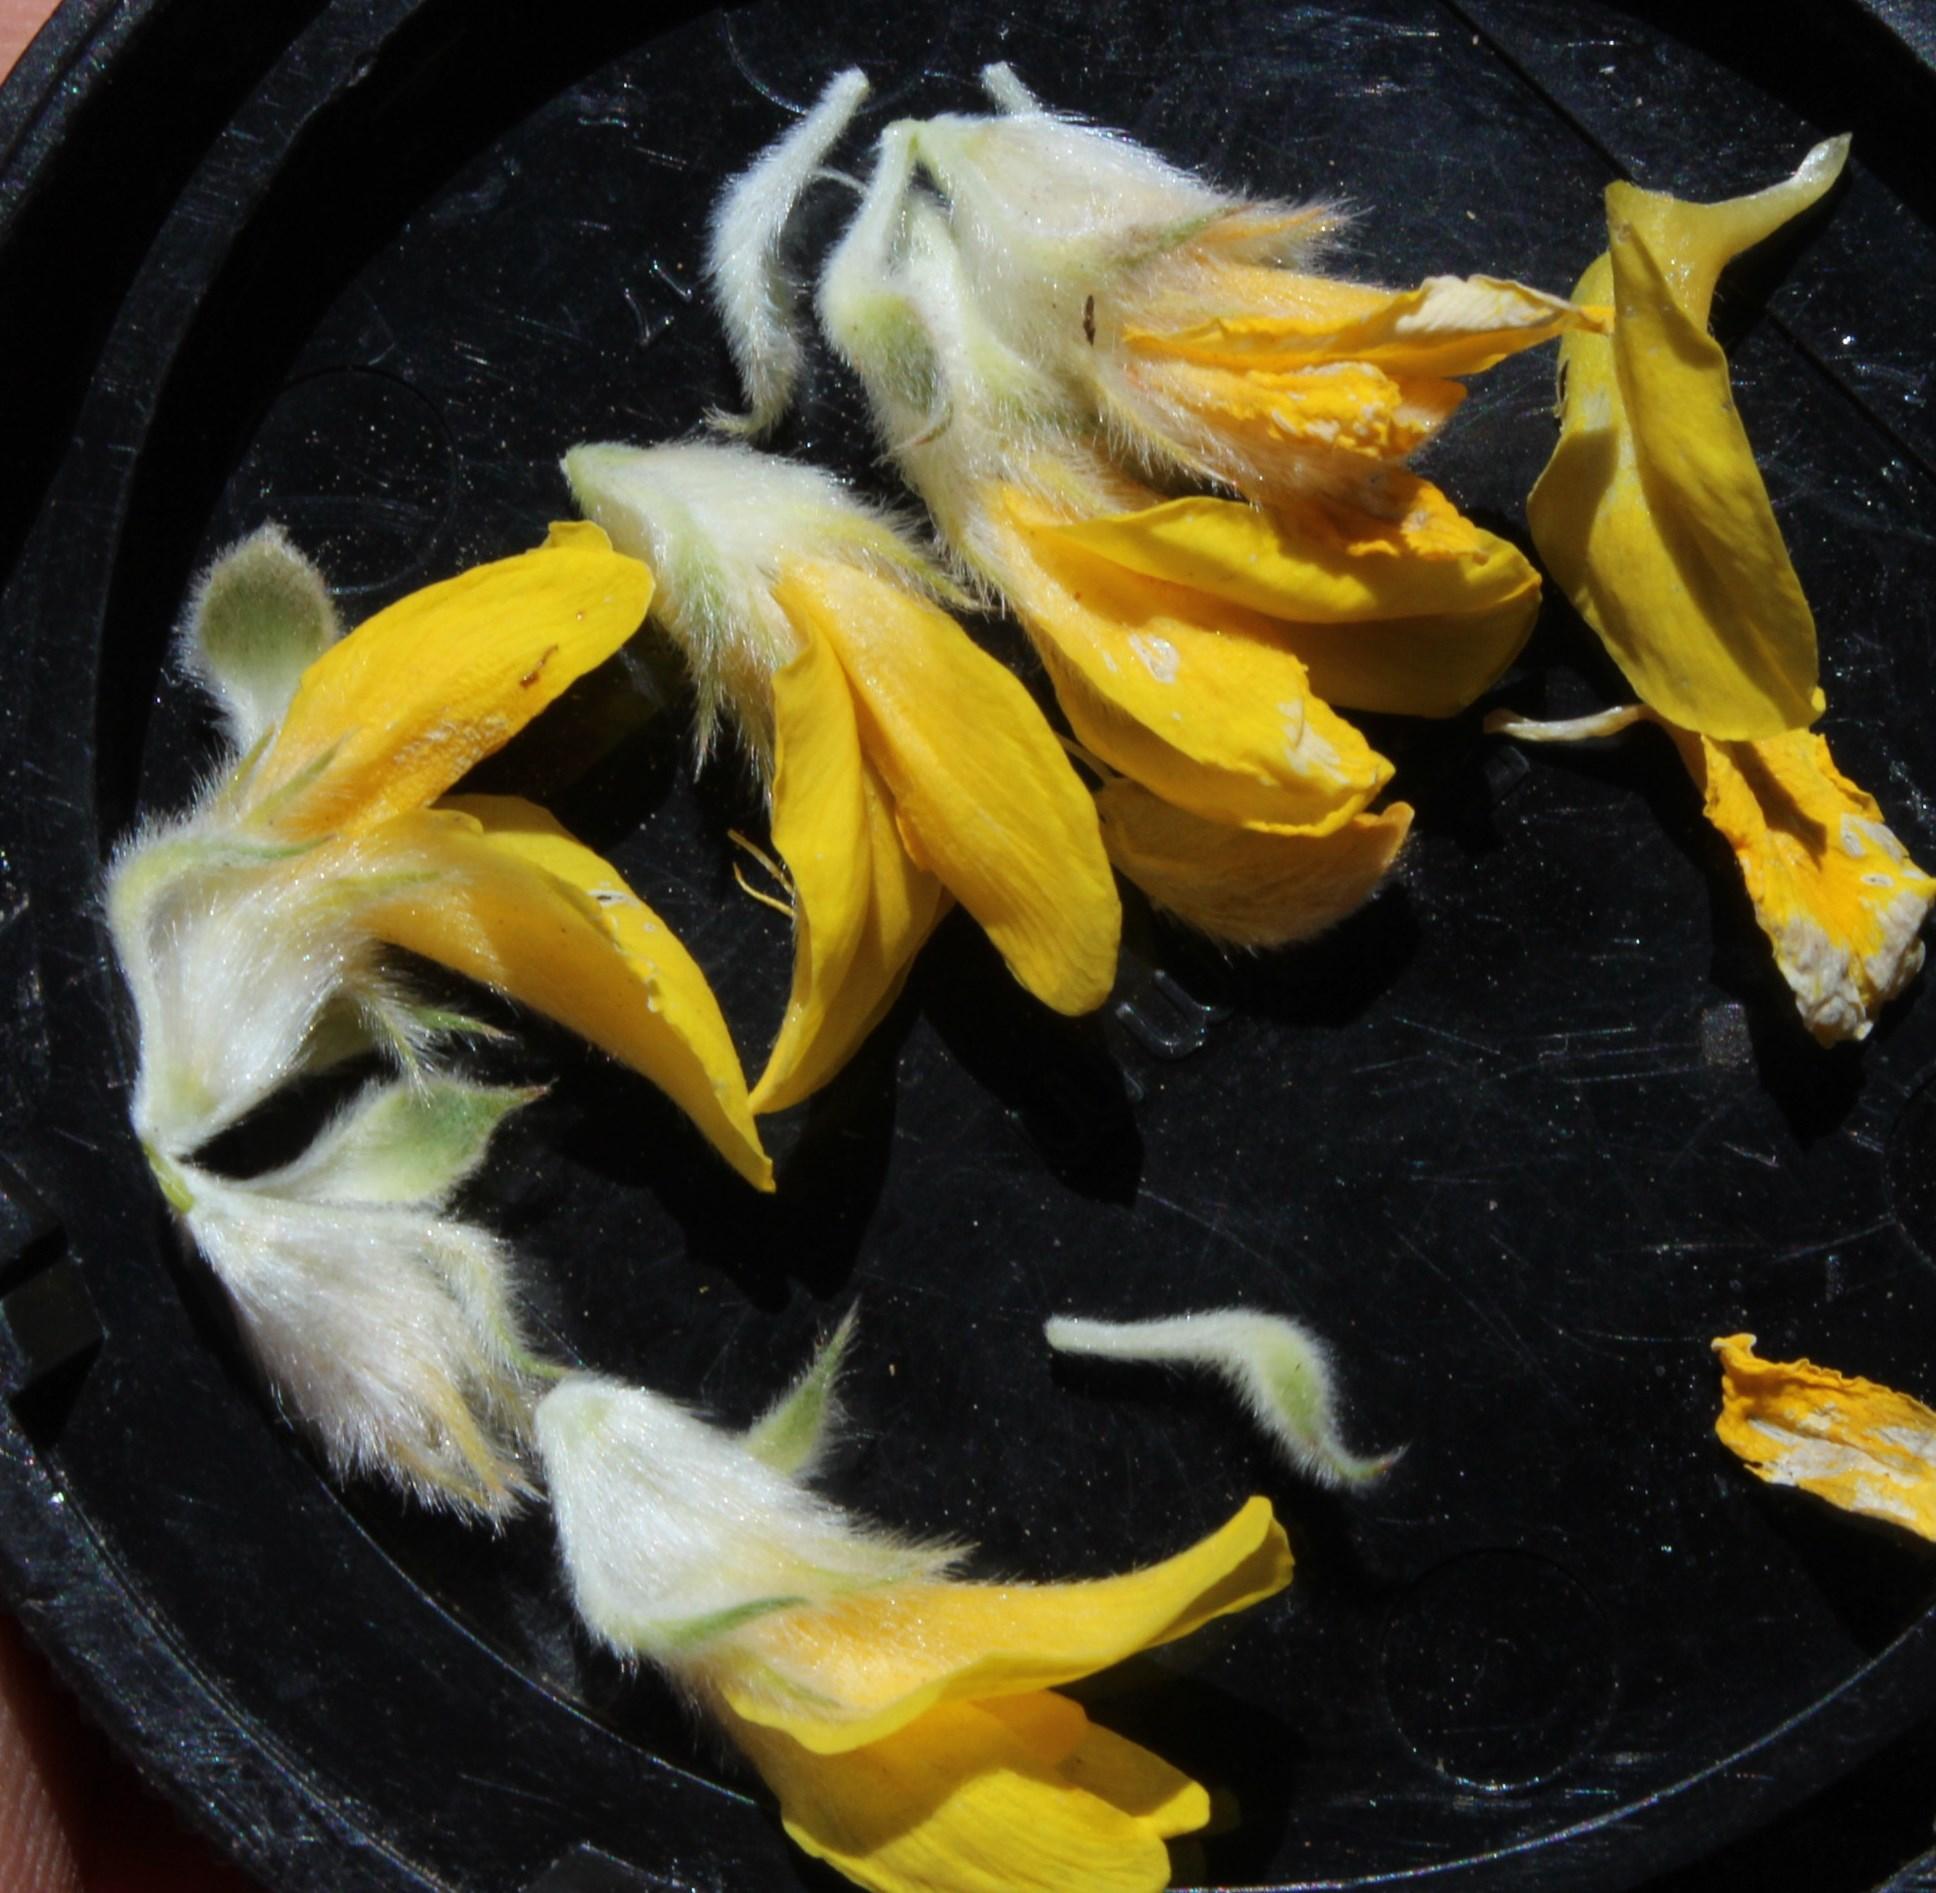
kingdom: Plantae
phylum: Tracheophyta
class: Magnoliopsida
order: Fabales
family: Fabaceae
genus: Aspalathus
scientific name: Aspalathus acocksii
